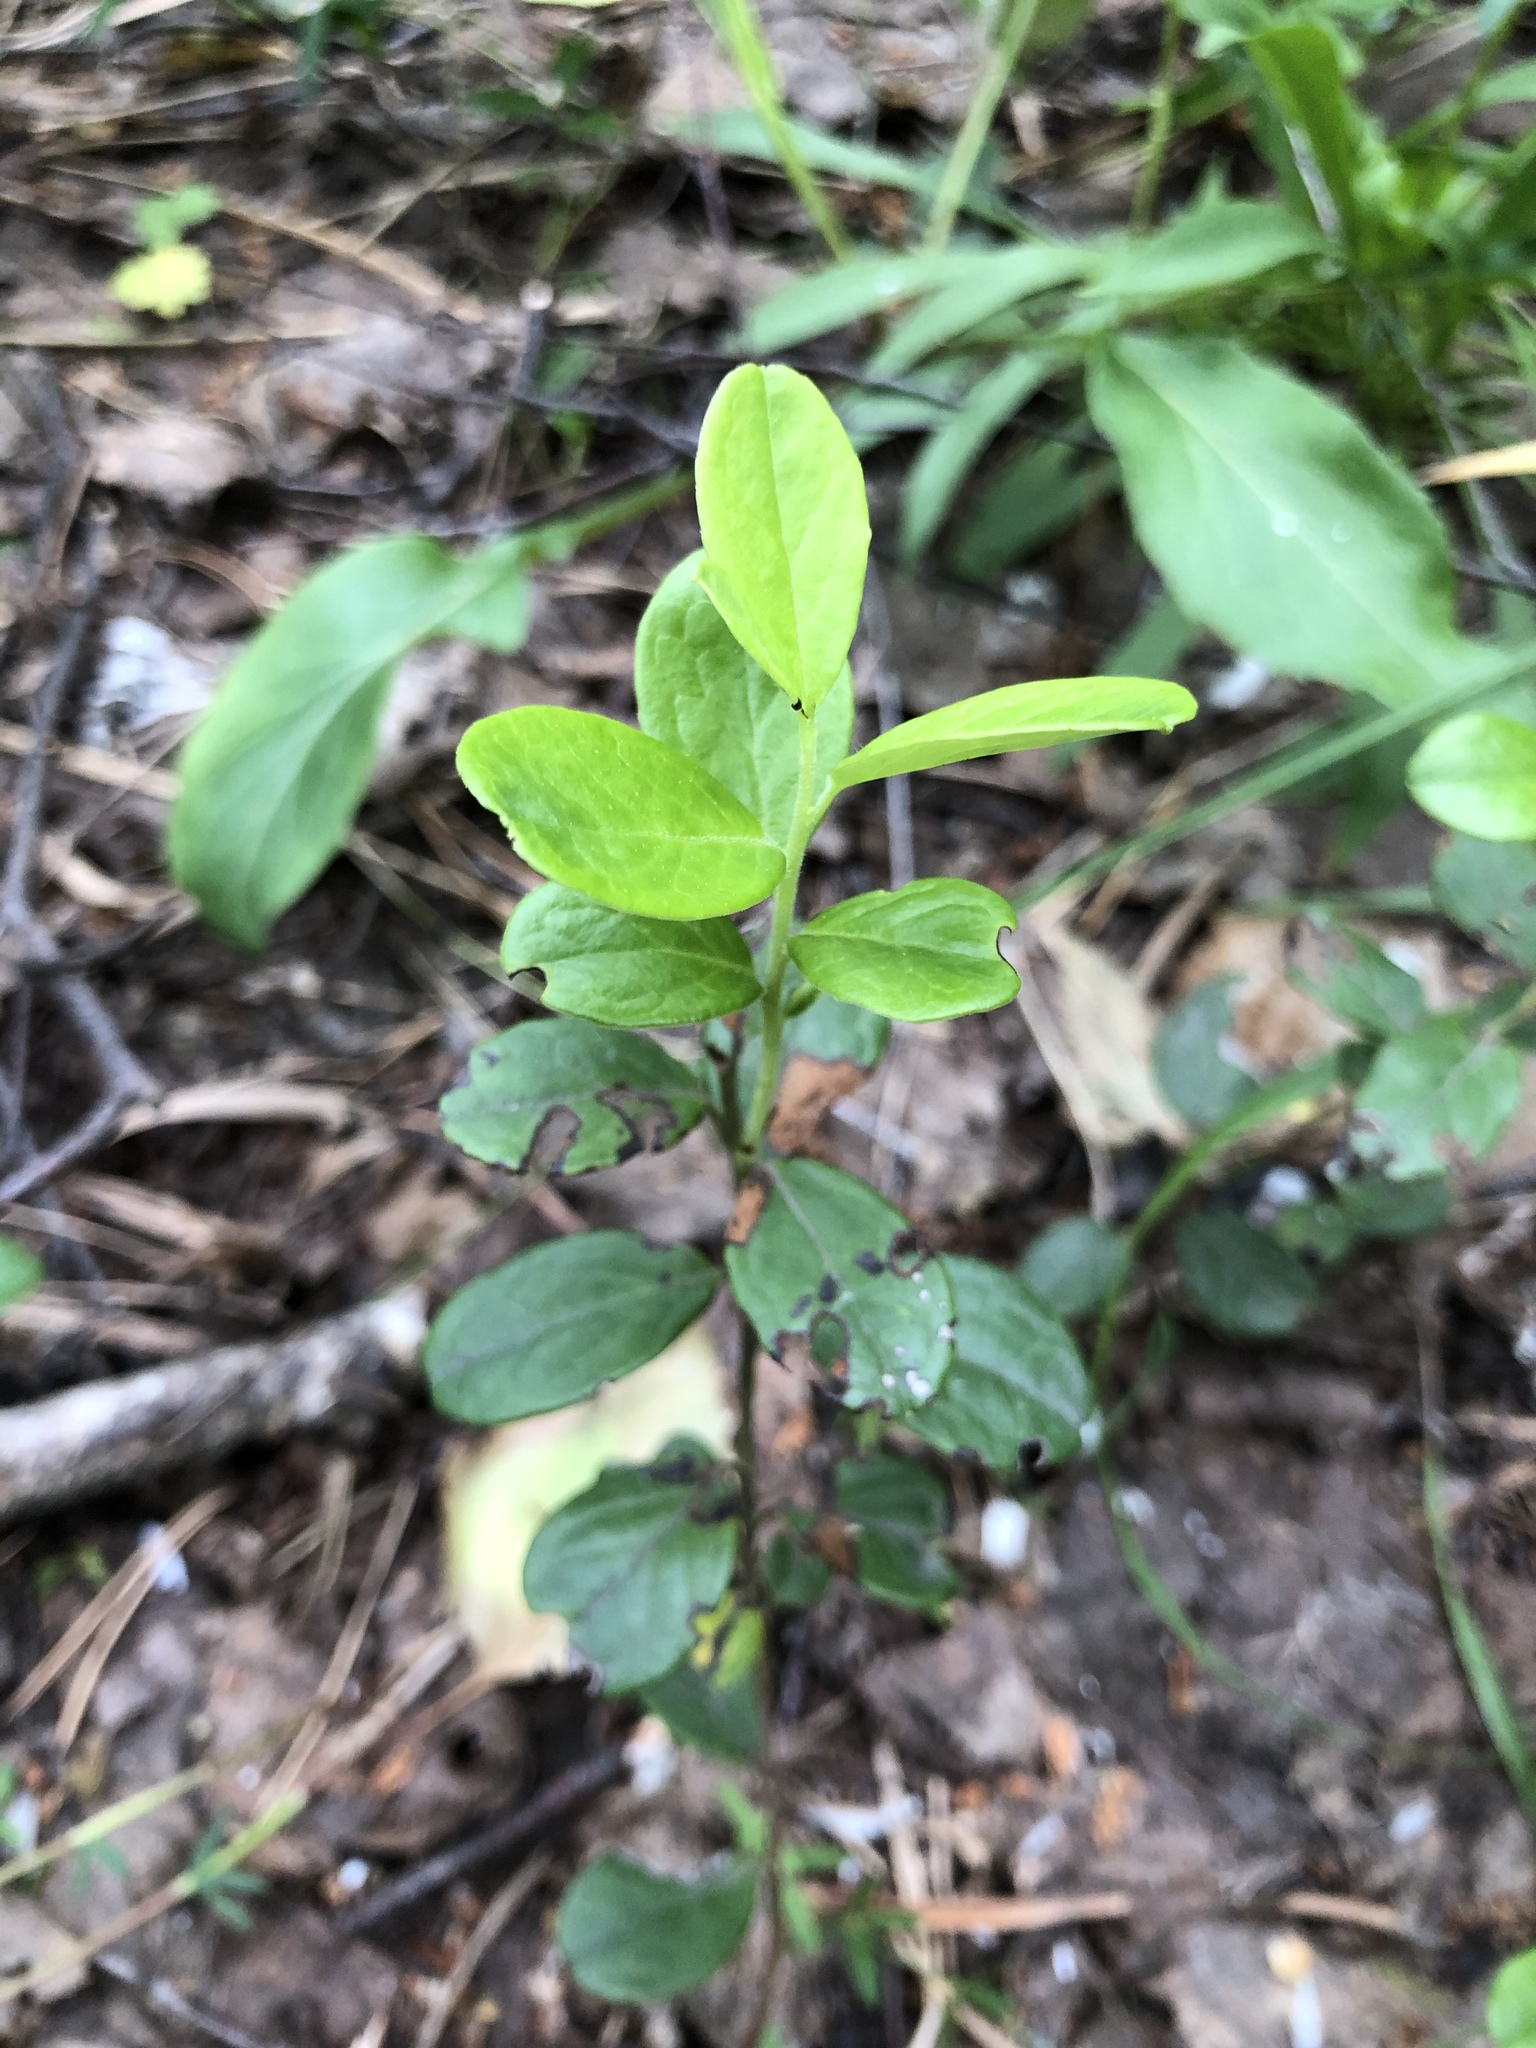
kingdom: Plantae
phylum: Tracheophyta
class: Magnoliopsida
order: Ericales
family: Ericaceae
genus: Vaccinium
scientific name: Vaccinium vitis-idaea
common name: Cowberry
